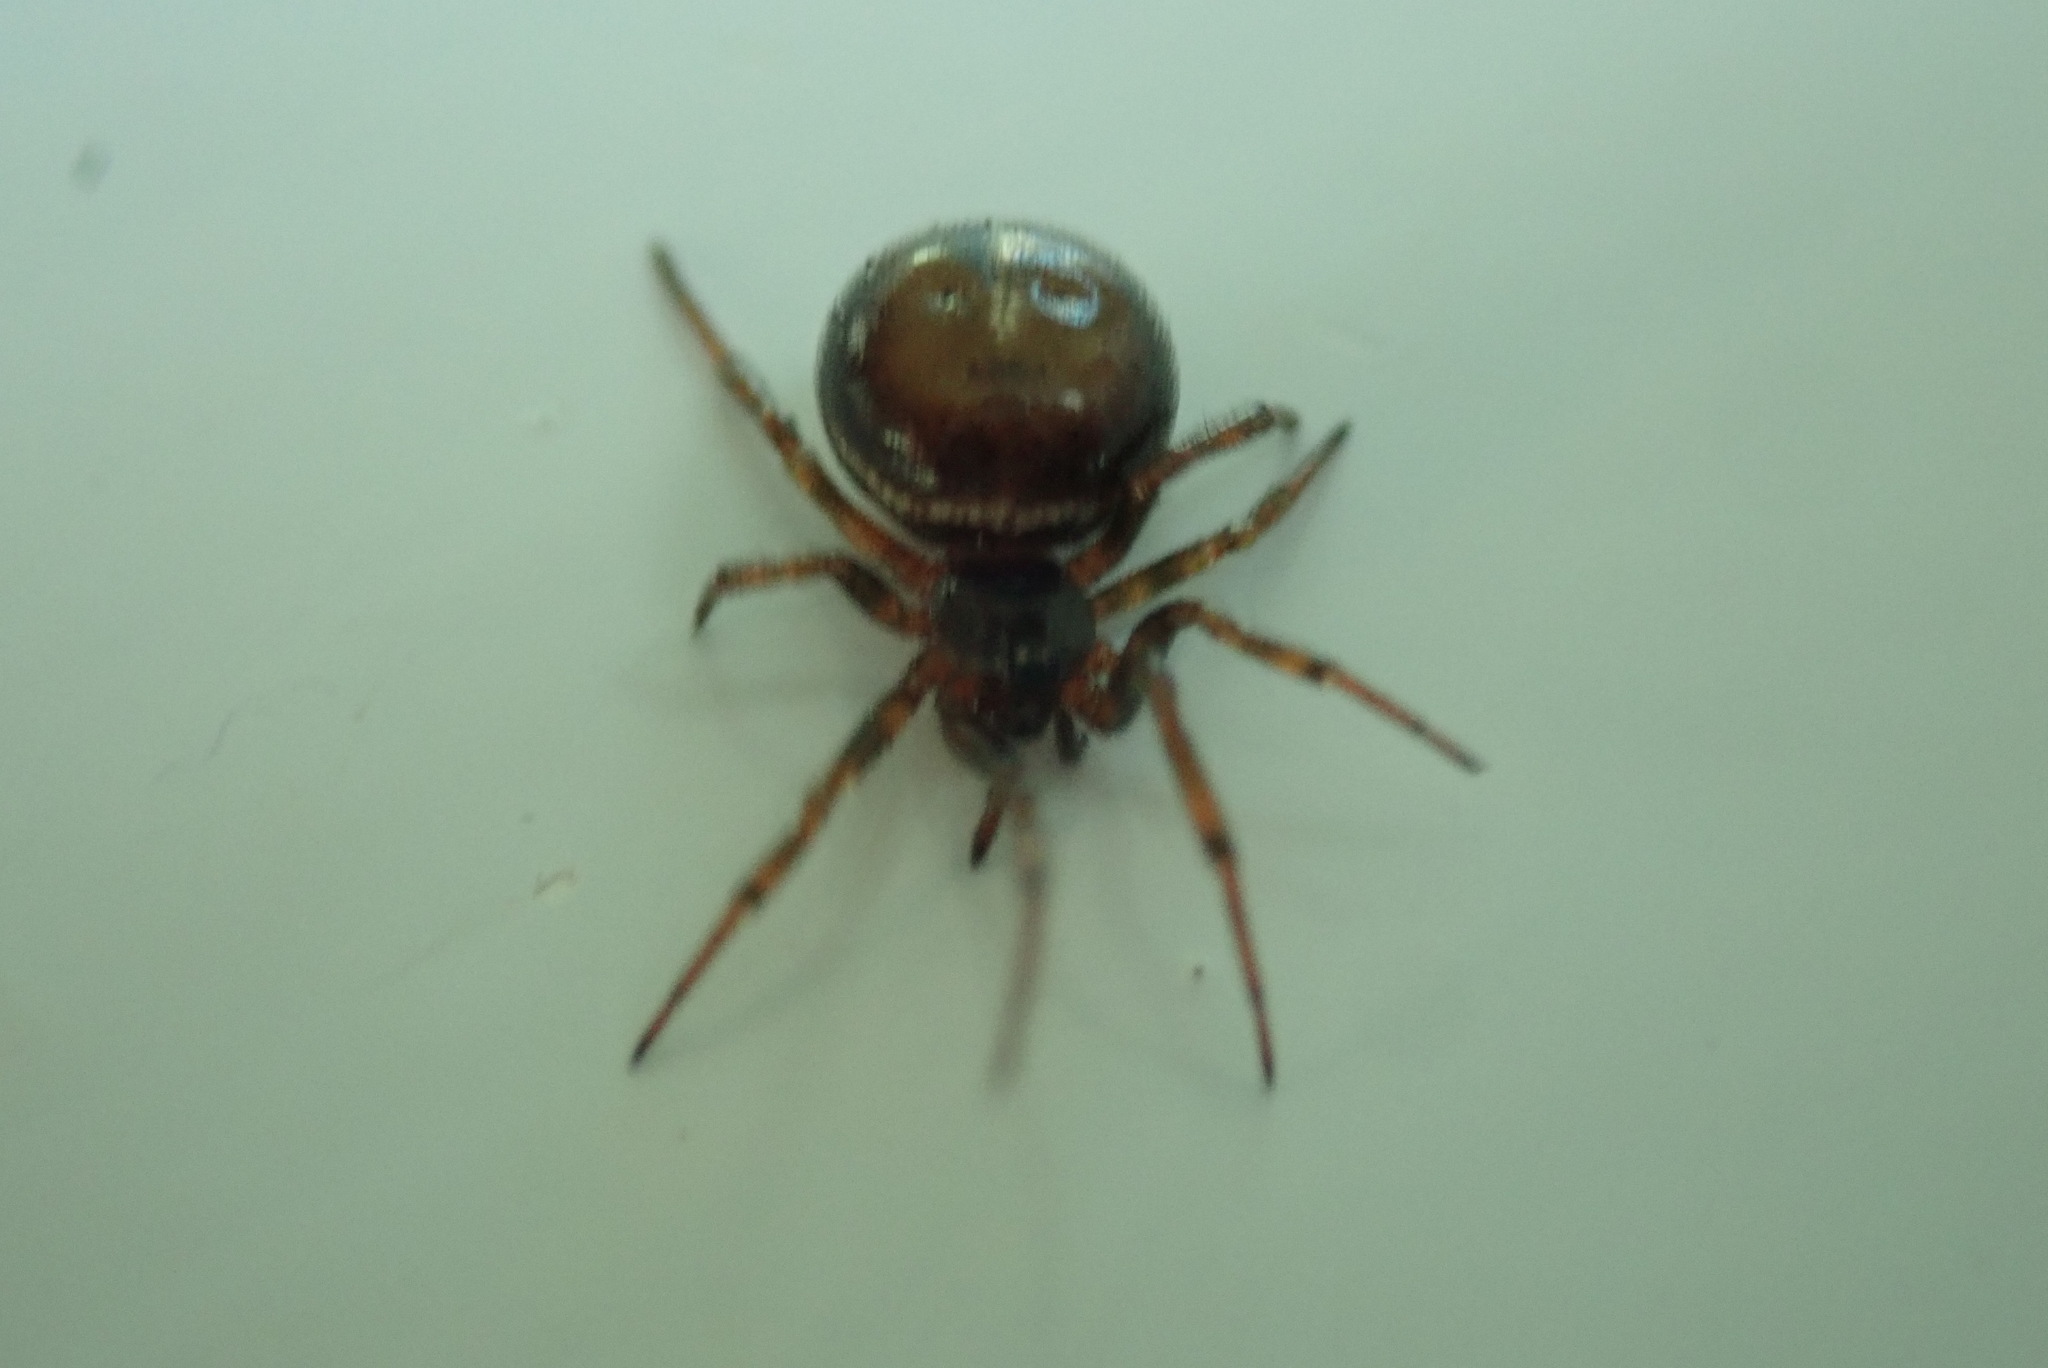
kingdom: Animalia
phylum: Arthropoda
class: Arachnida
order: Araneae
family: Theridiidae
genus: Steatoda
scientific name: Steatoda bipunctata
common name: False widow
